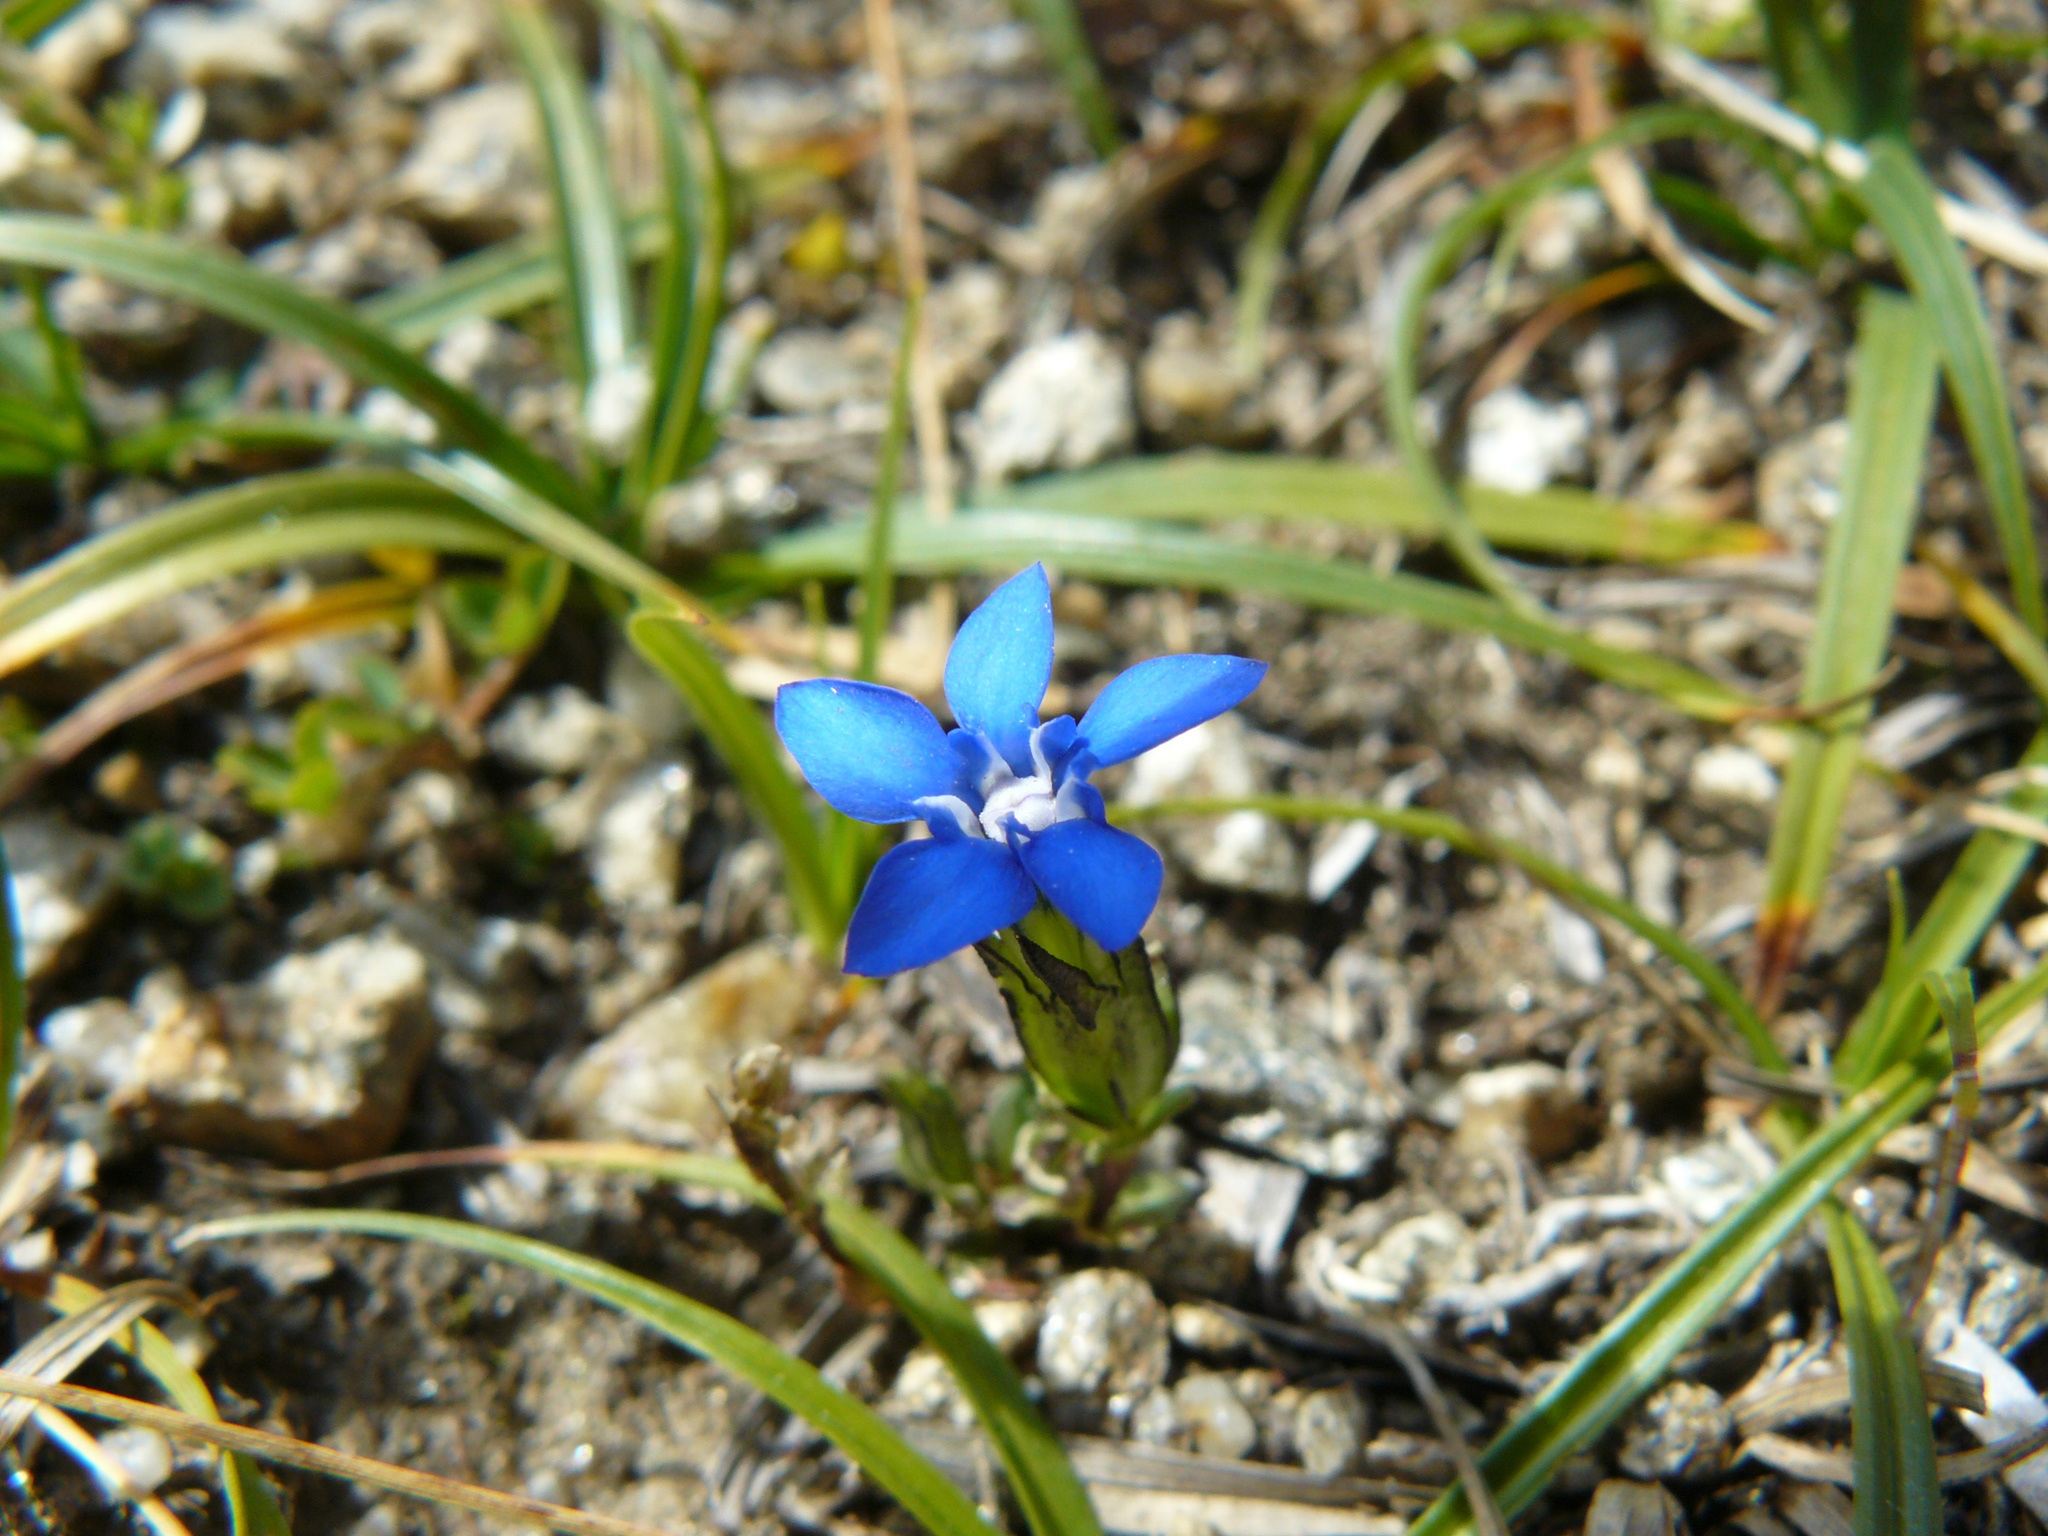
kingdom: Plantae
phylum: Tracheophyta
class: Magnoliopsida
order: Gentianales
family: Gentianaceae
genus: Gentiana
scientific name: Gentiana nivalis
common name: Alpine gentian
